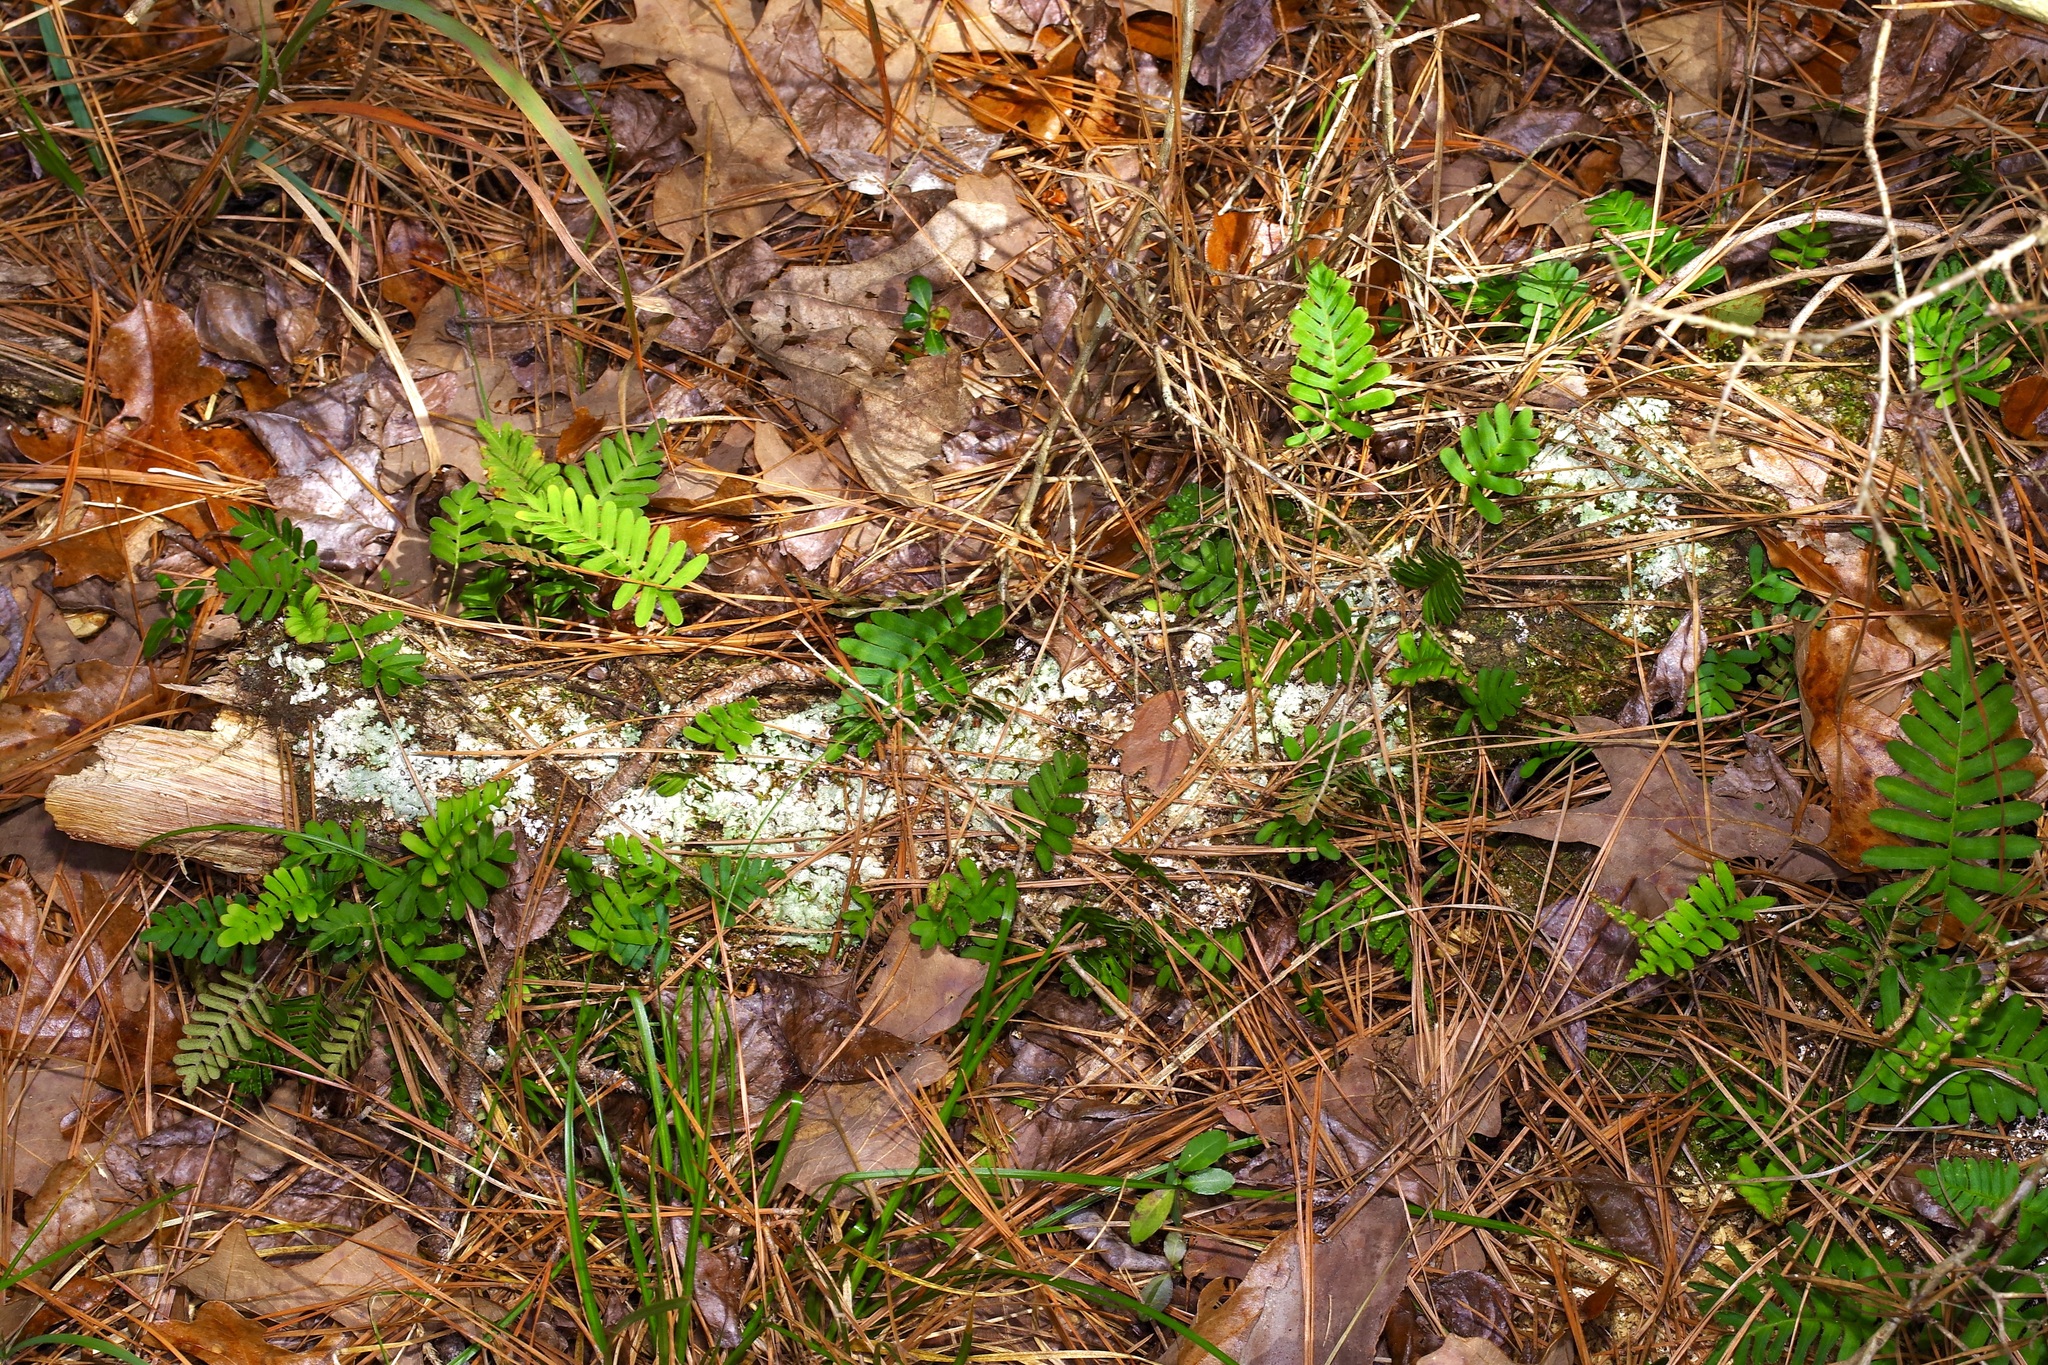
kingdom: Plantae
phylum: Tracheophyta
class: Polypodiopsida
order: Polypodiales
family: Polypodiaceae
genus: Pleopeltis
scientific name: Pleopeltis michauxiana
